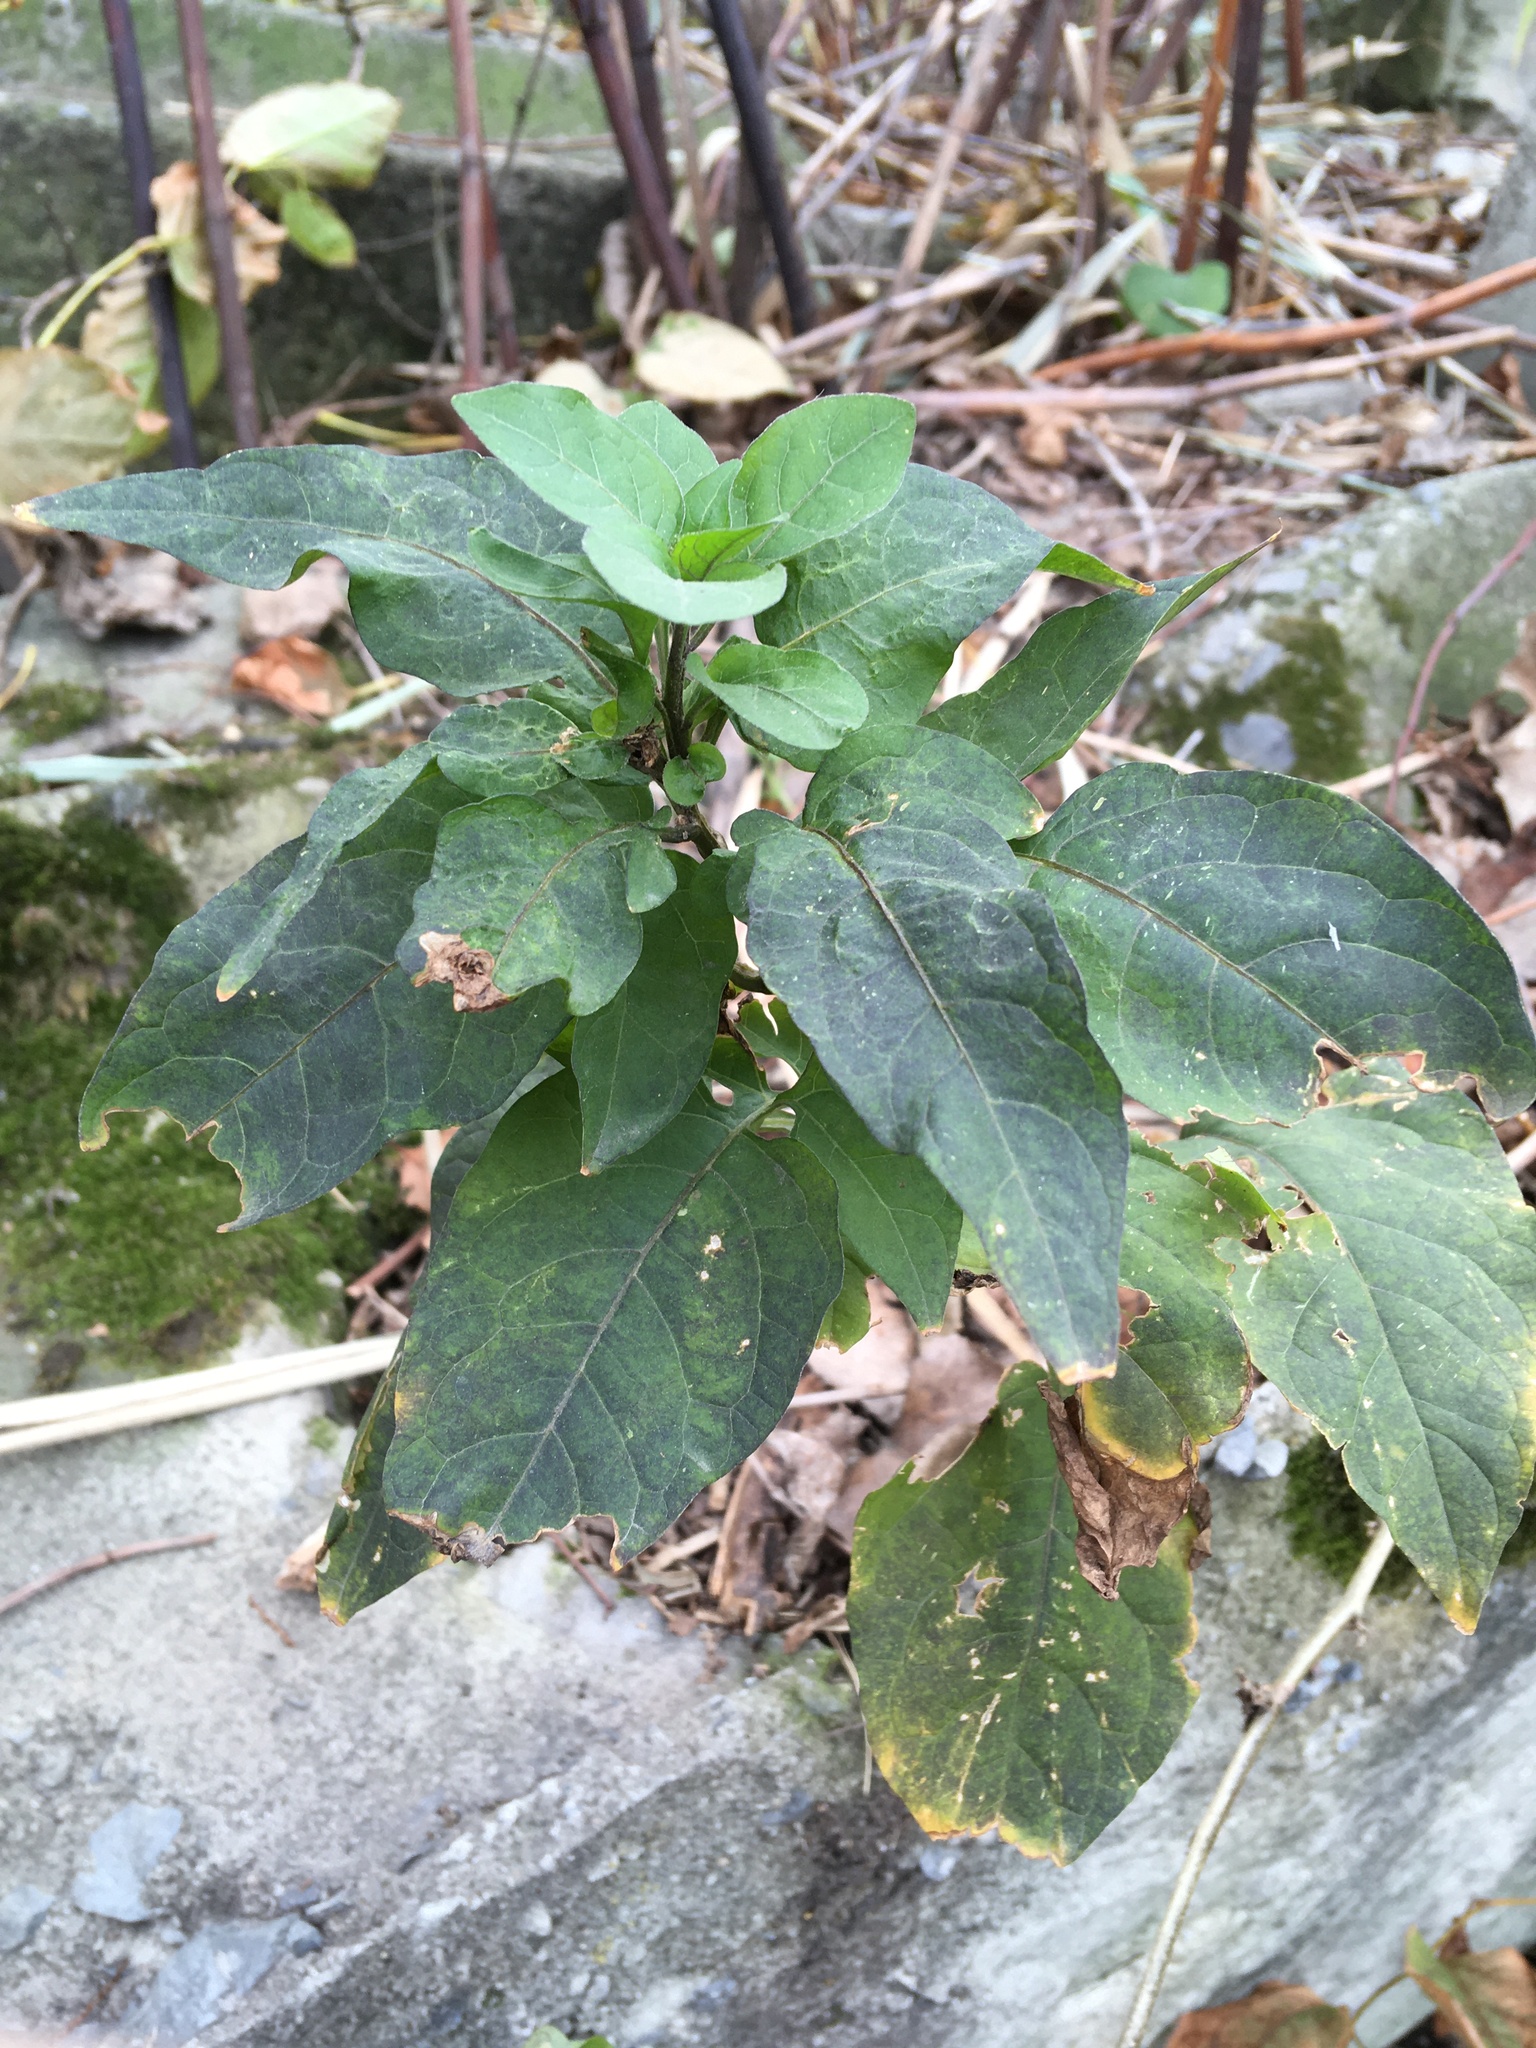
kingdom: Plantae
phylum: Tracheophyta
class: Magnoliopsida
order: Solanales
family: Solanaceae
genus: Solanum
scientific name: Solanum dulcamara
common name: Climbing nightshade
